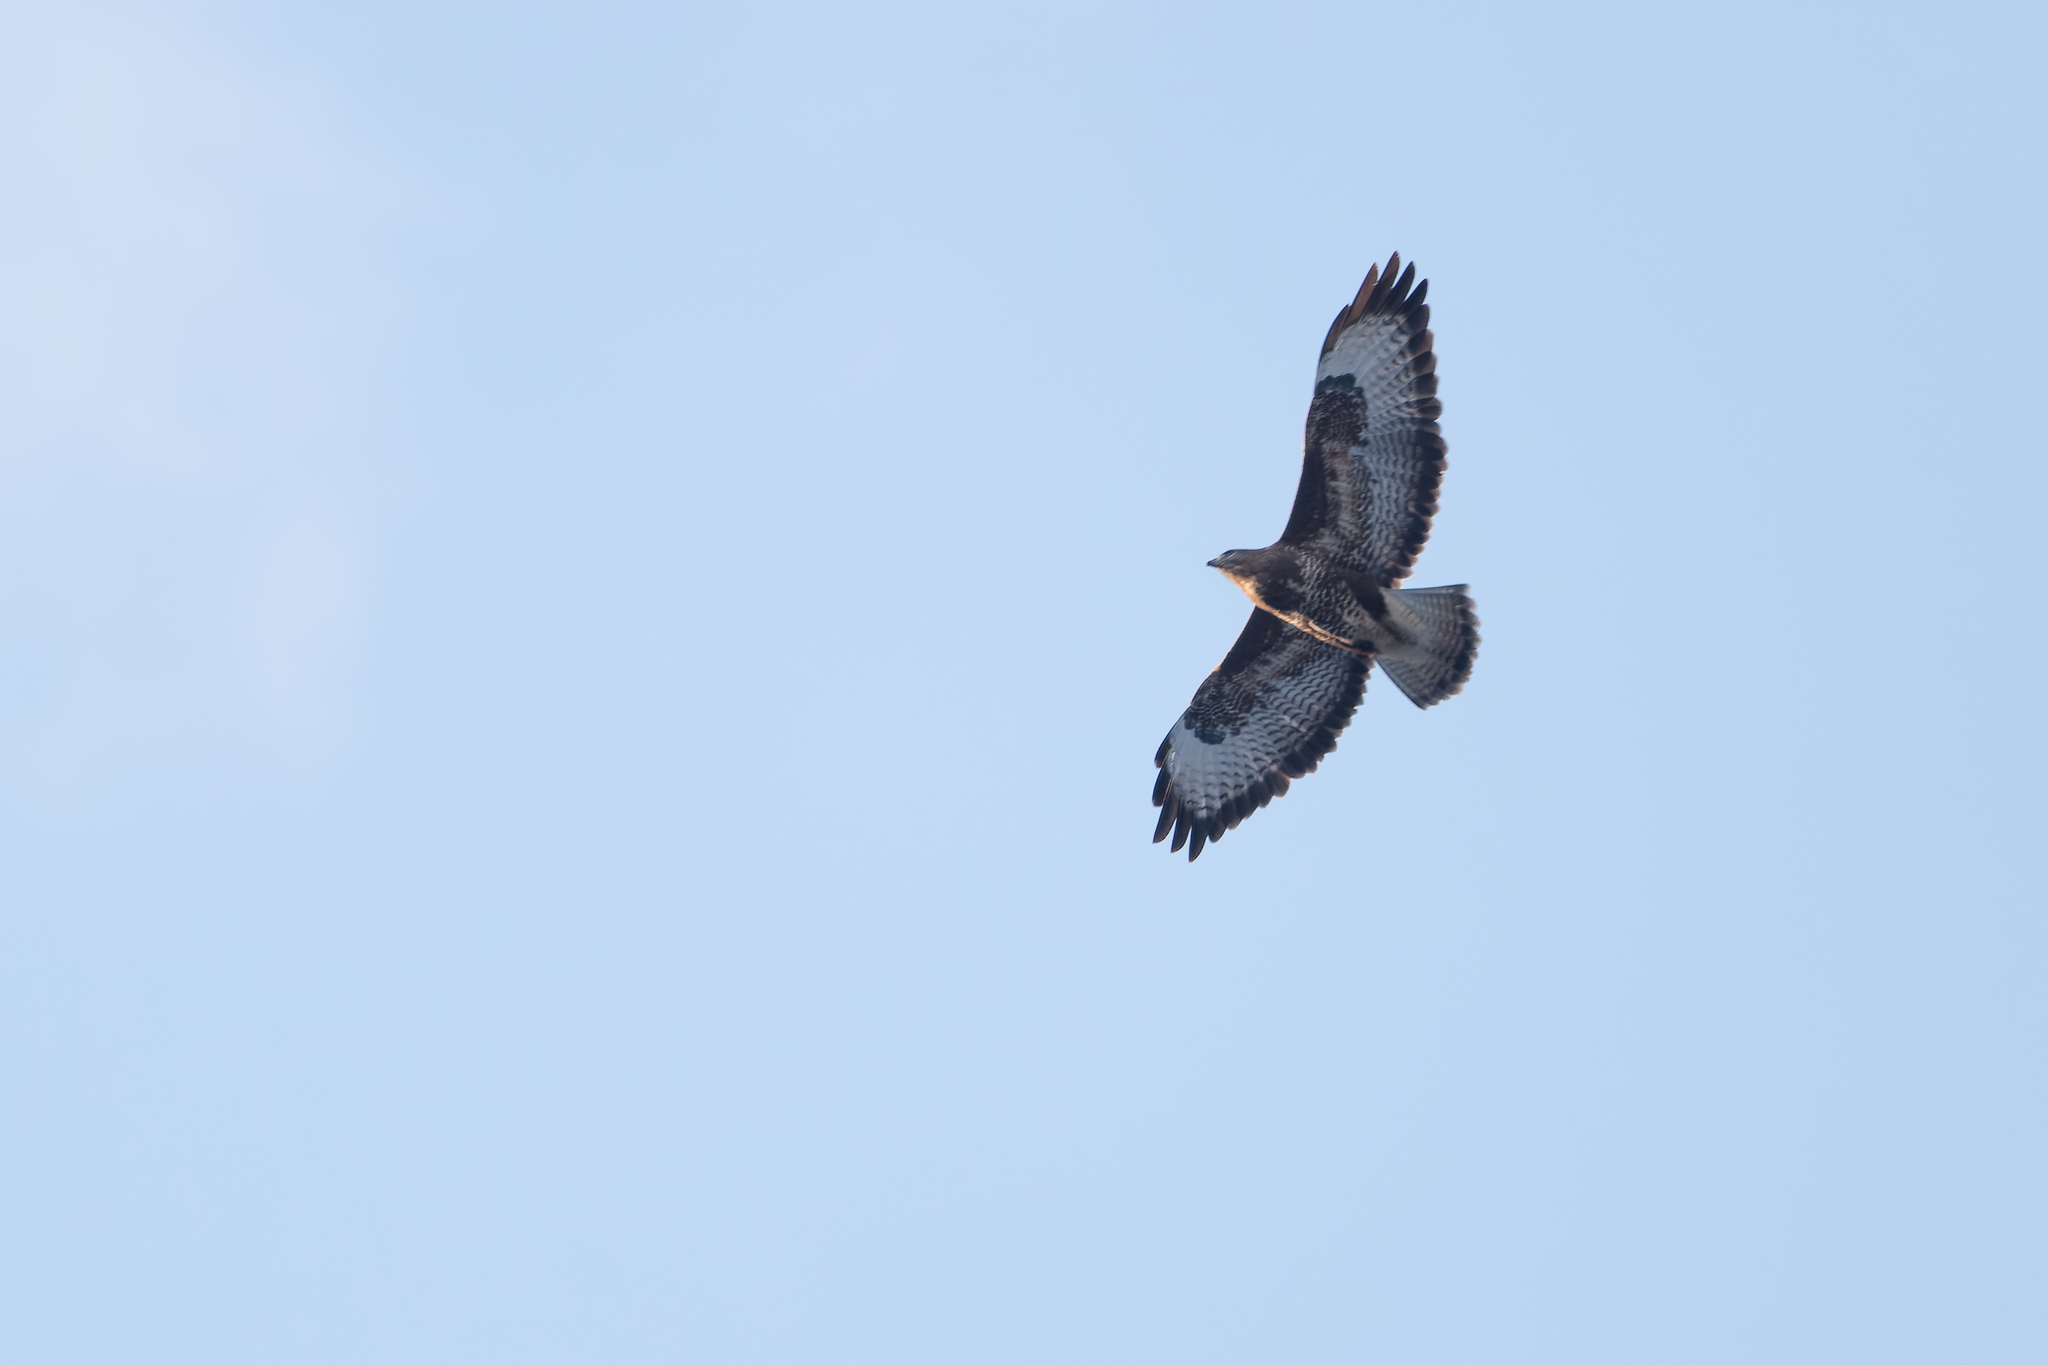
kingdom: Animalia
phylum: Chordata
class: Aves
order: Accipitriformes
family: Accipitridae
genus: Buteo
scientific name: Buteo buteo
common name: Common buzzard
